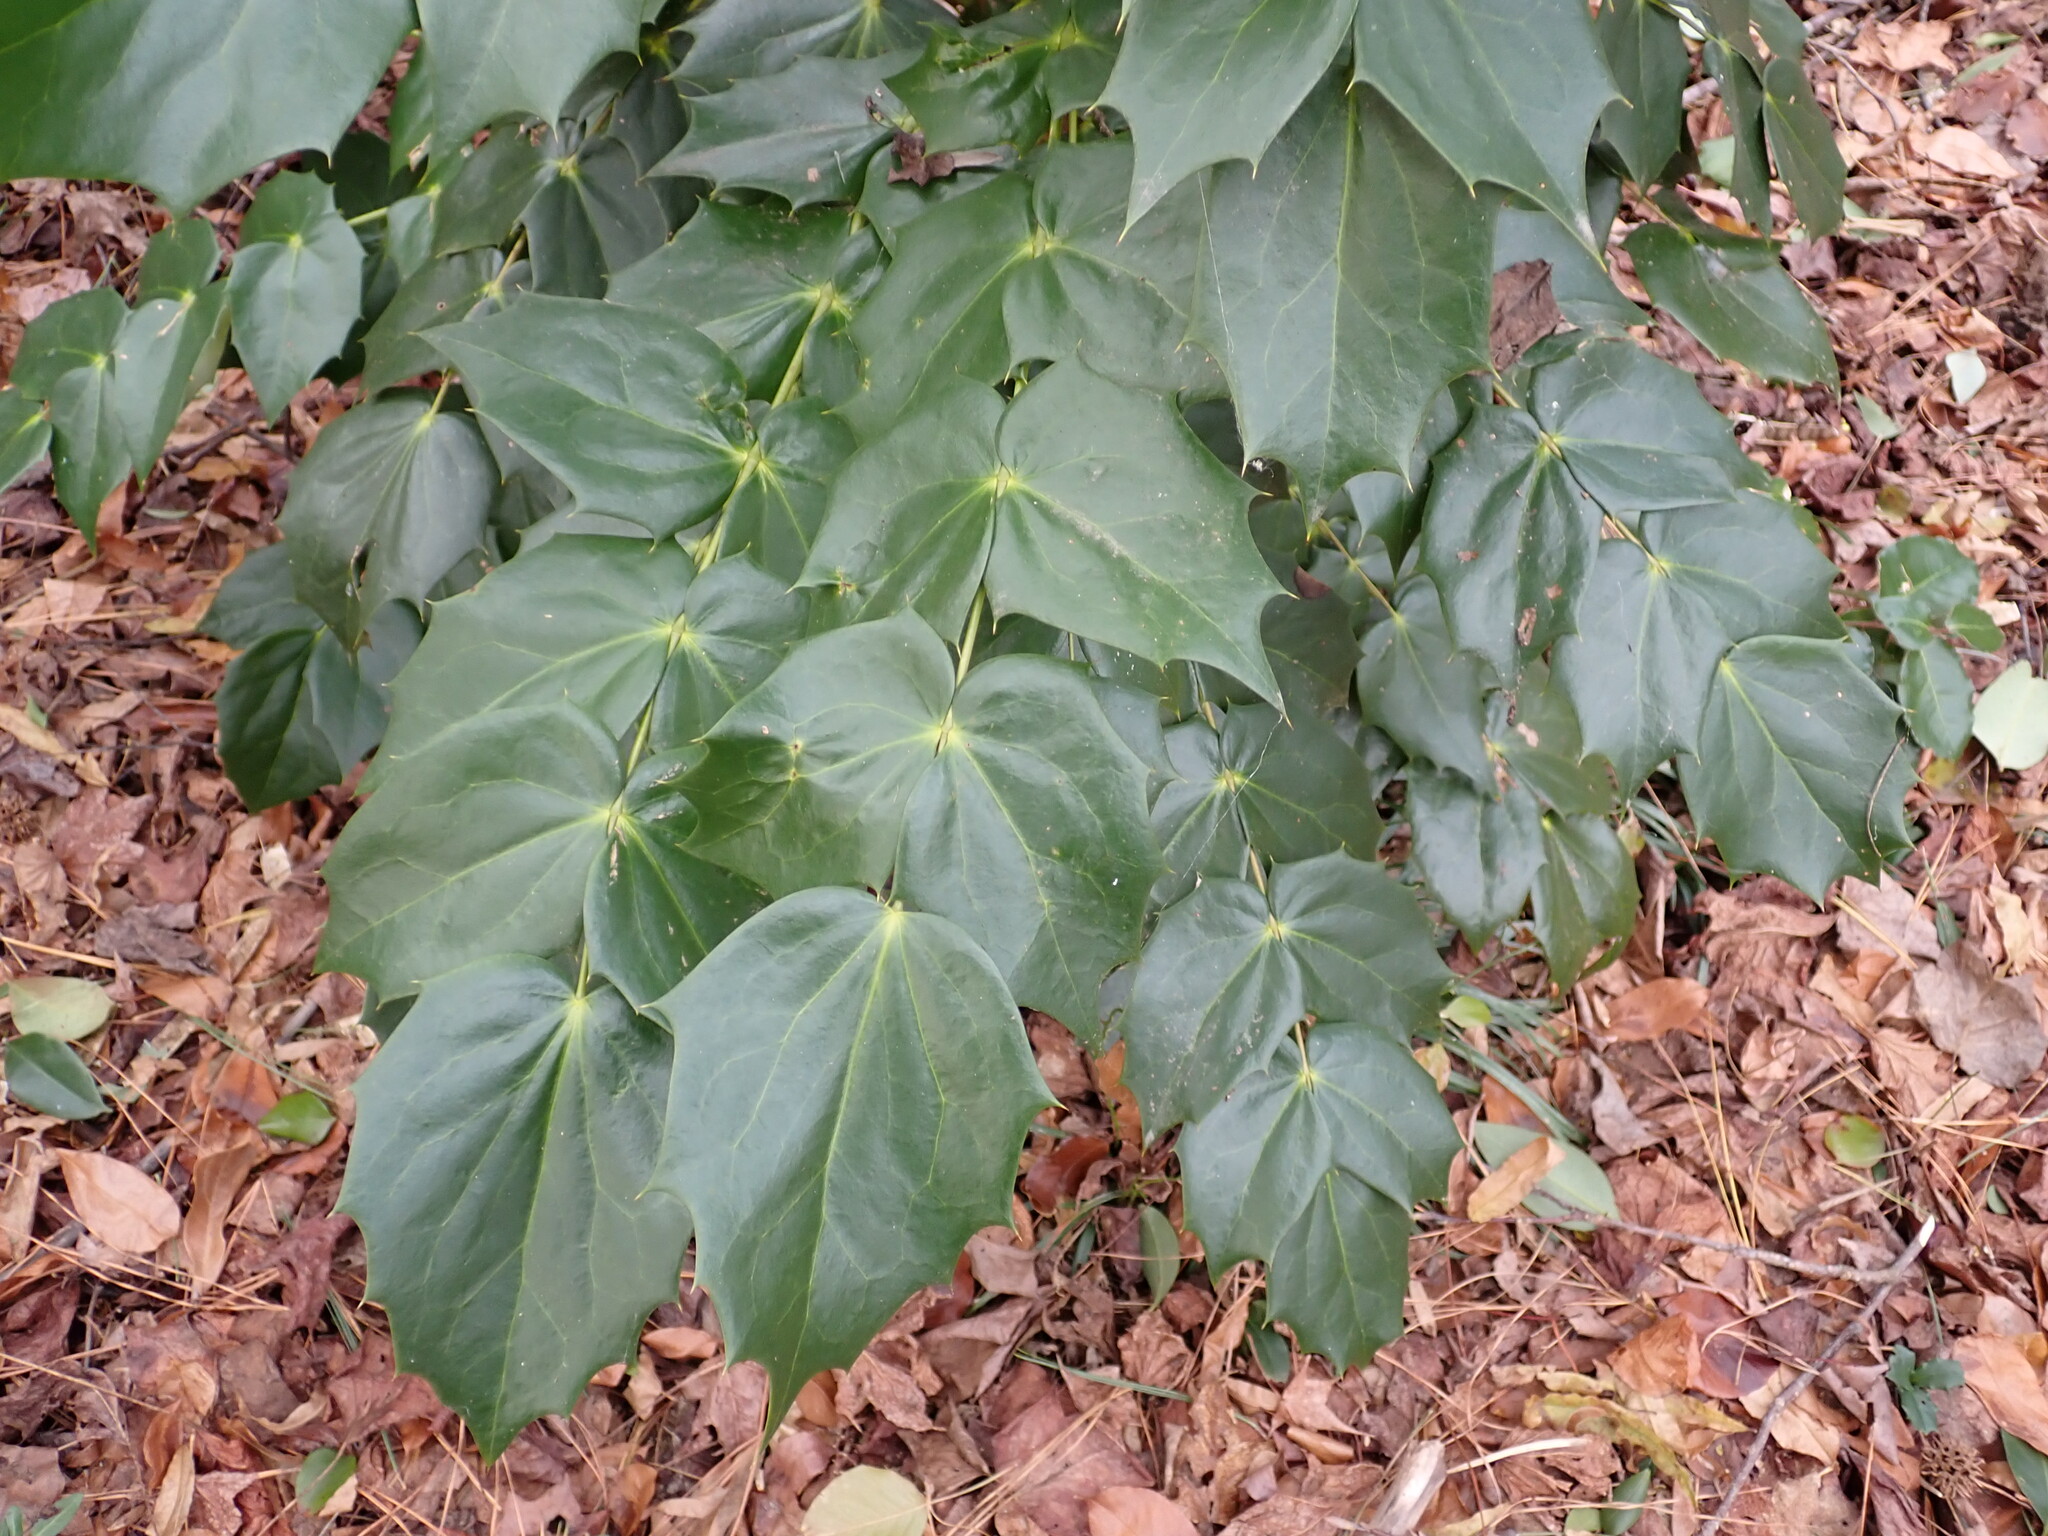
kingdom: Plantae
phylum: Tracheophyta
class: Magnoliopsida
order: Ranunculales
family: Berberidaceae
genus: Mahonia
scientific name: Mahonia bealei
